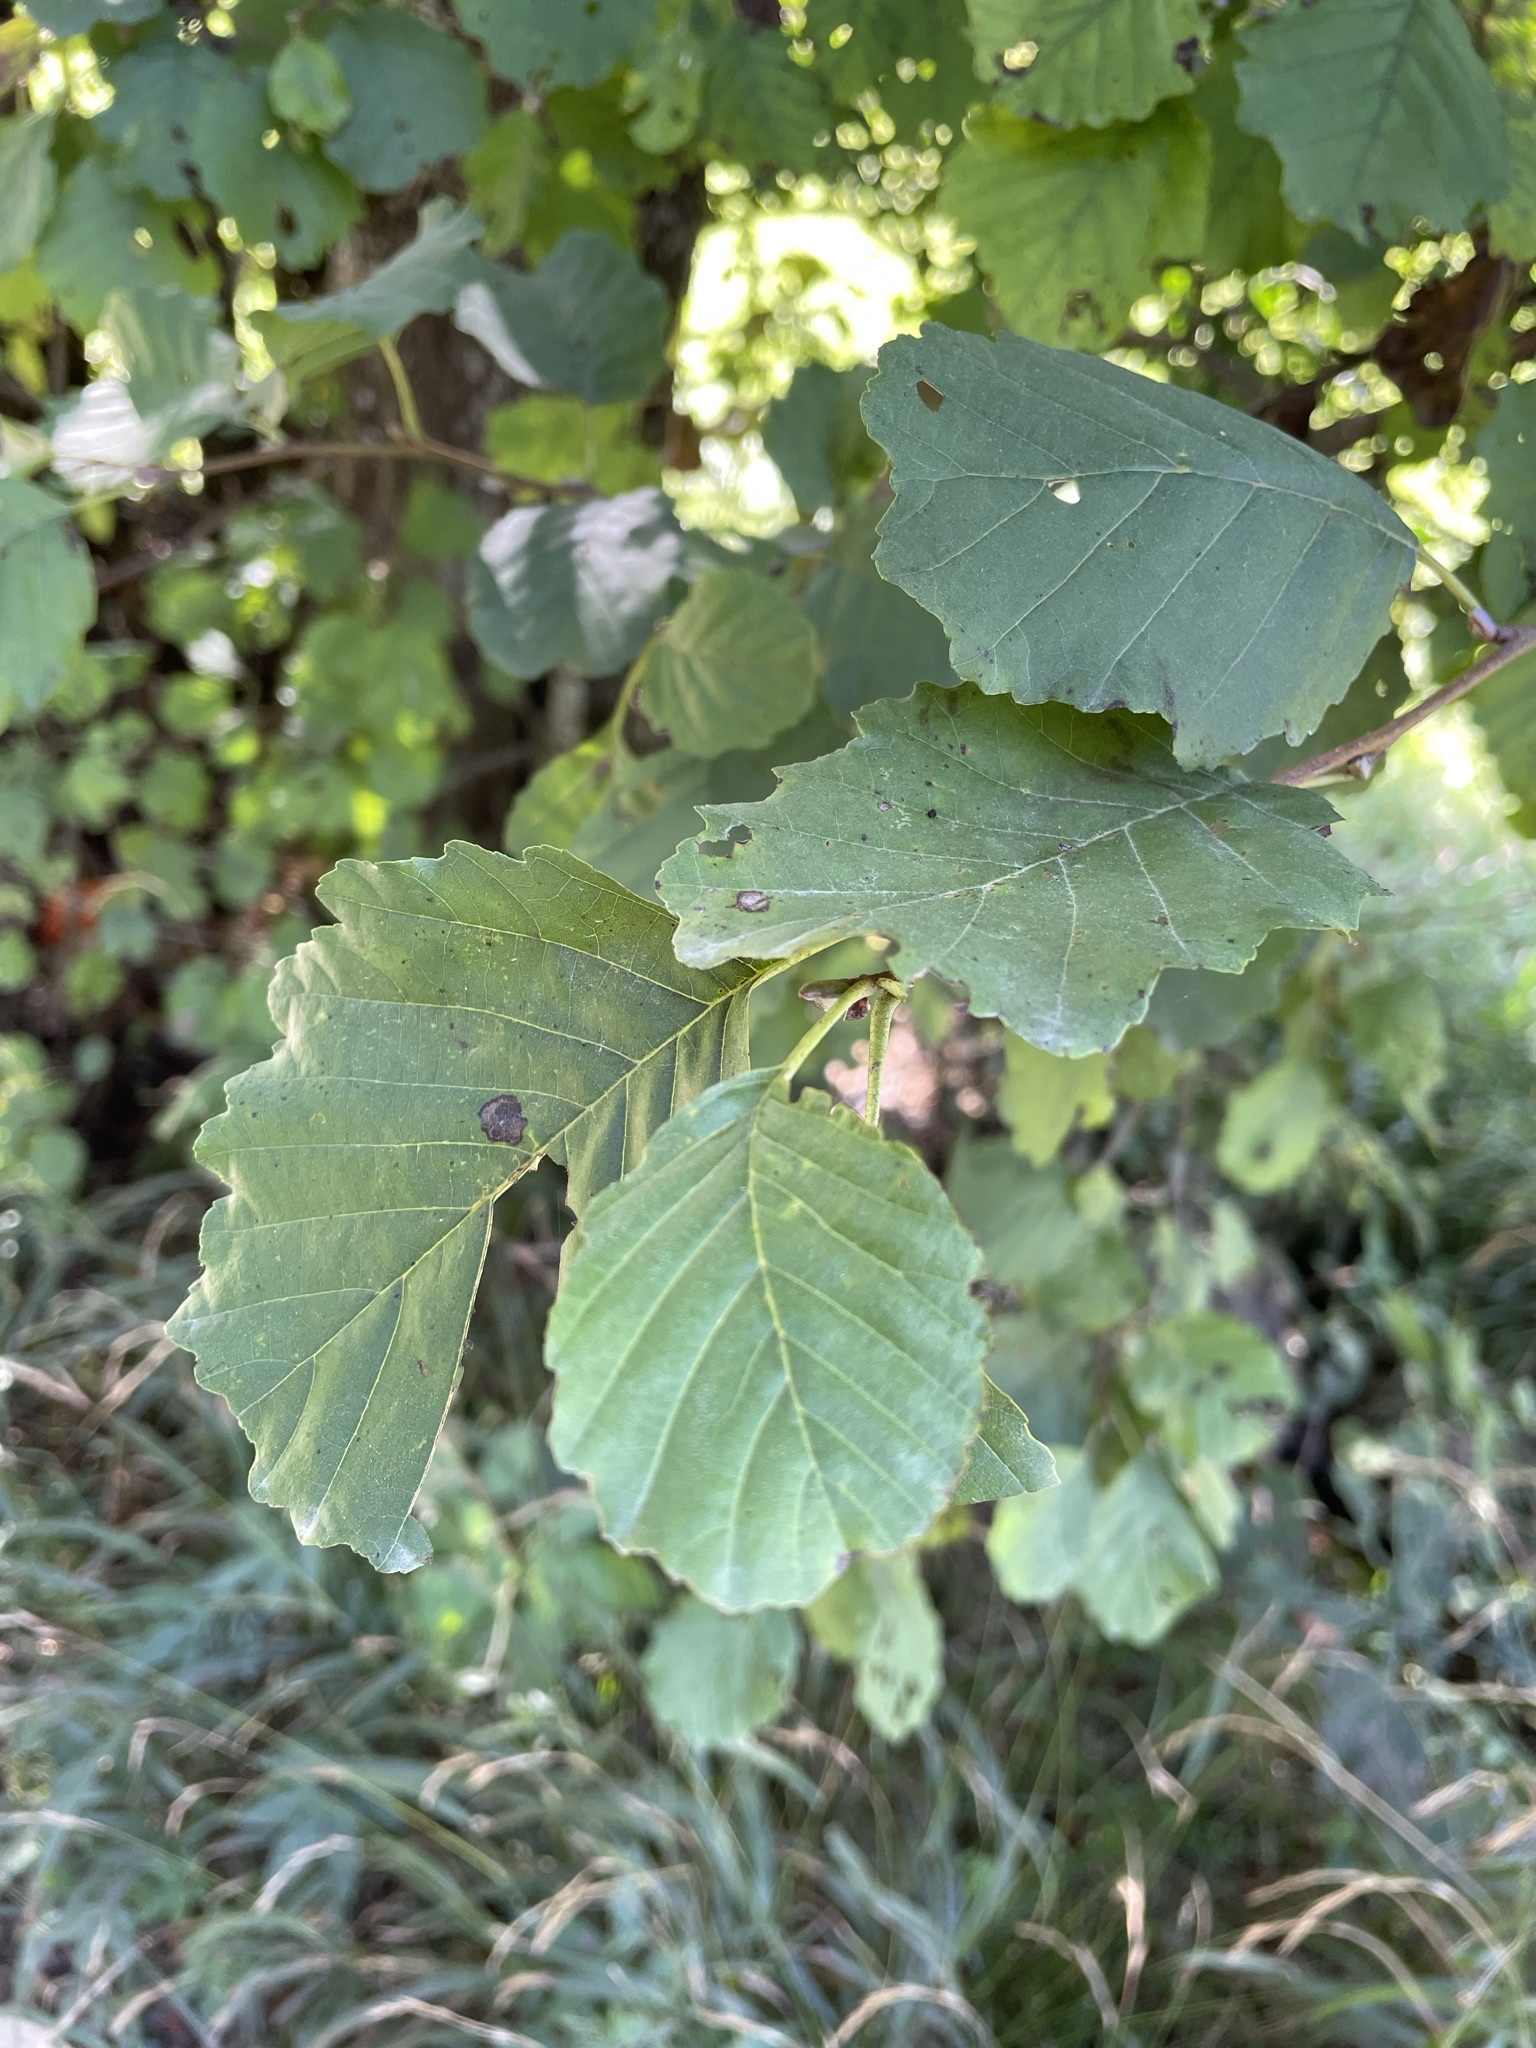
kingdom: Plantae
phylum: Tracheophyta
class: Magnoliopsida
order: Fagales
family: Betulaceae
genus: Alnus
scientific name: Alnus glutinosa
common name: Black alder
